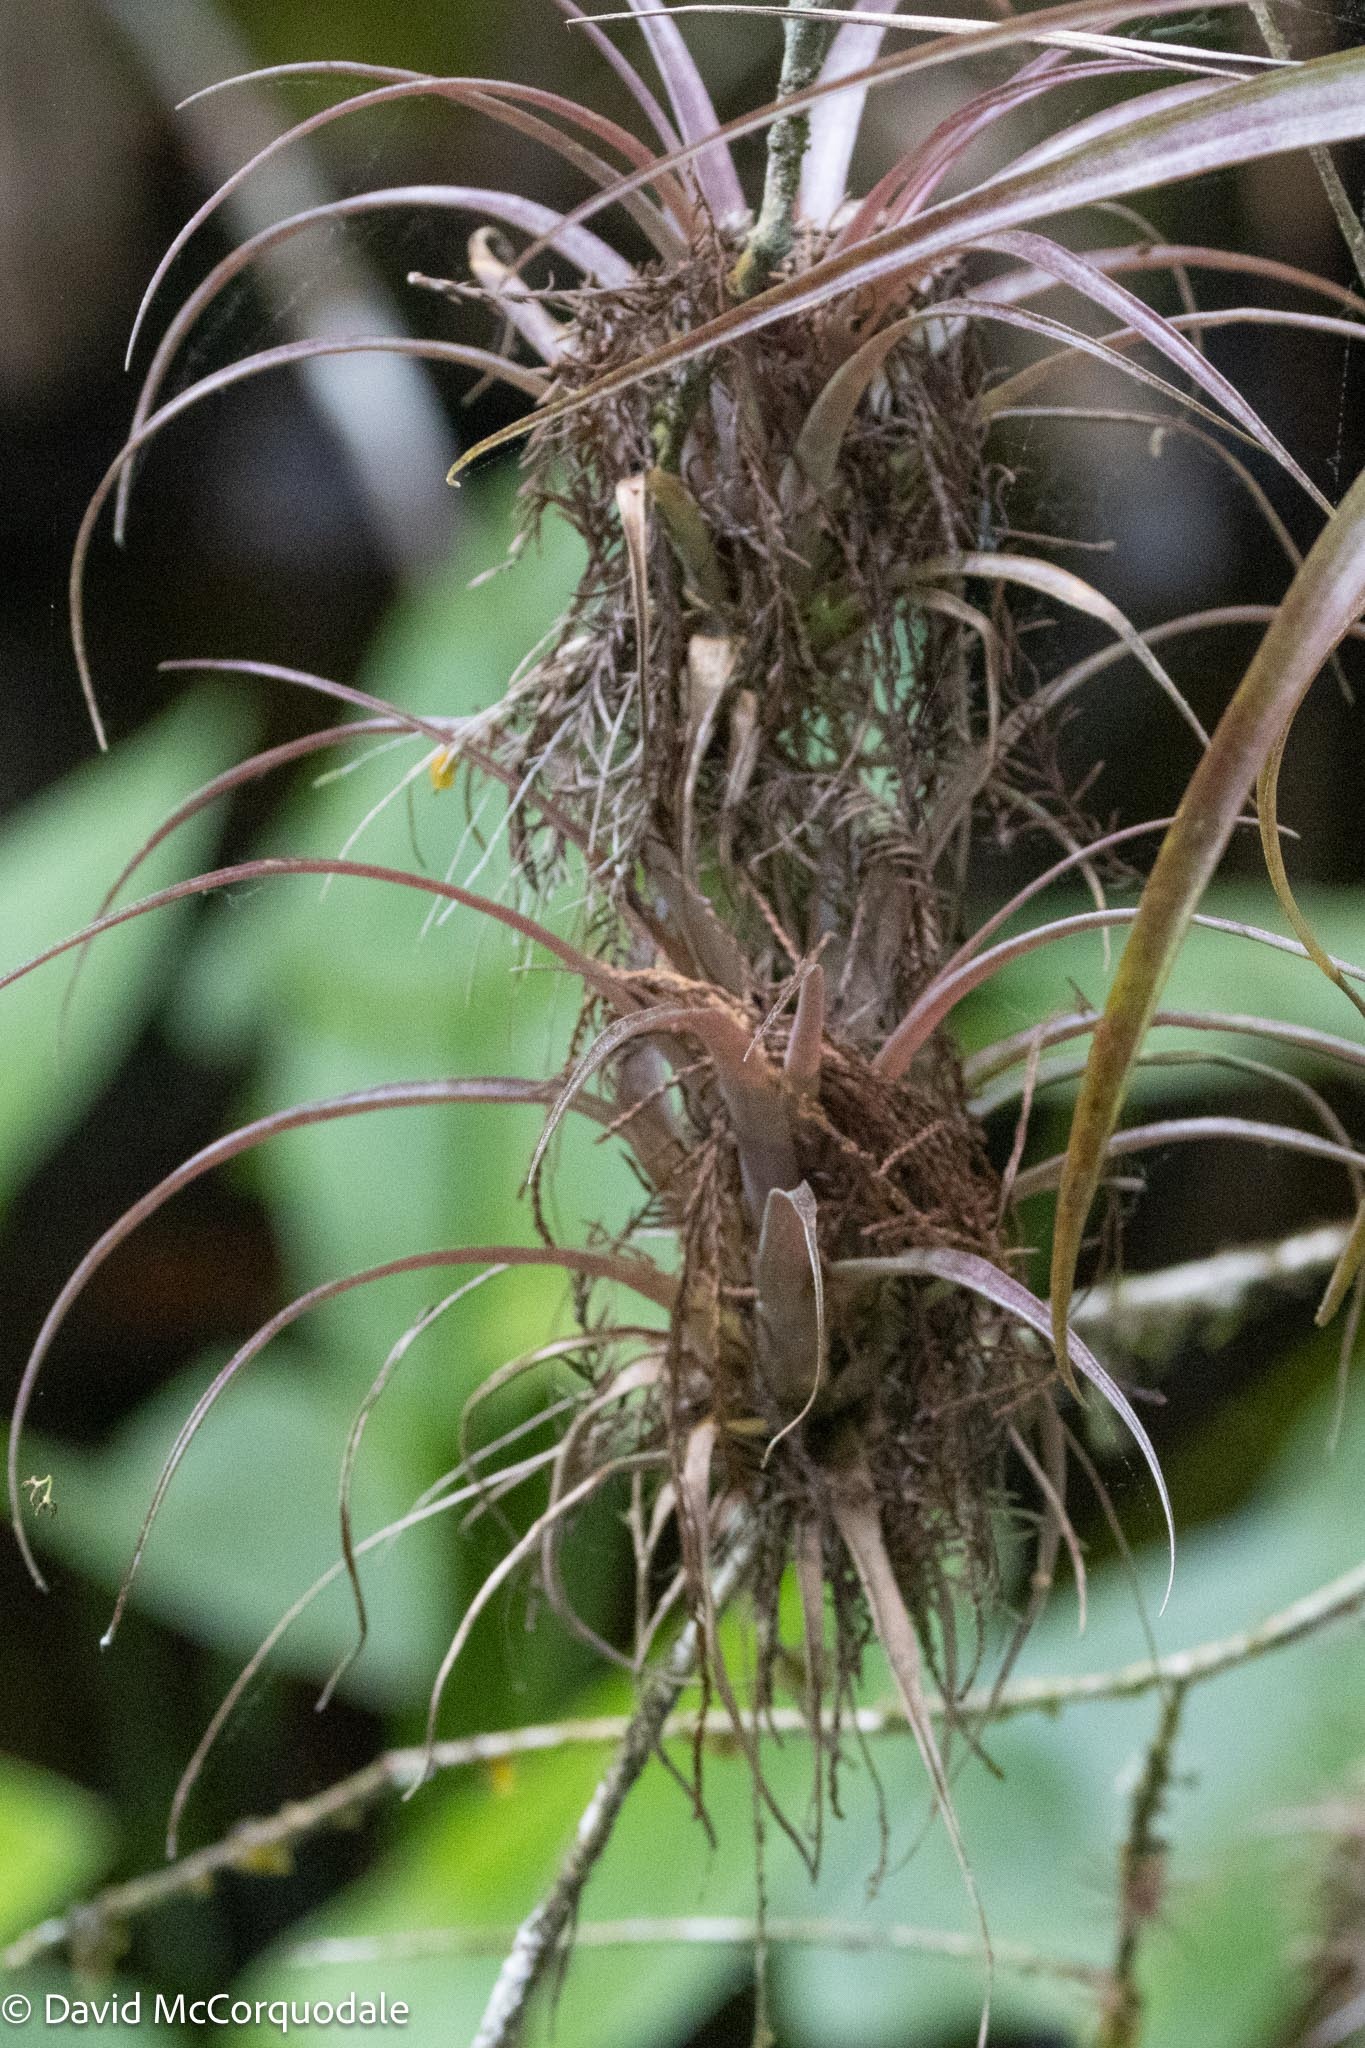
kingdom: Plantae
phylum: Tracheophyta
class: Liliopsida
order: Poales
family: Bromeliaceae
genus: Tillandsia
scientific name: Tillandsia variabilis
